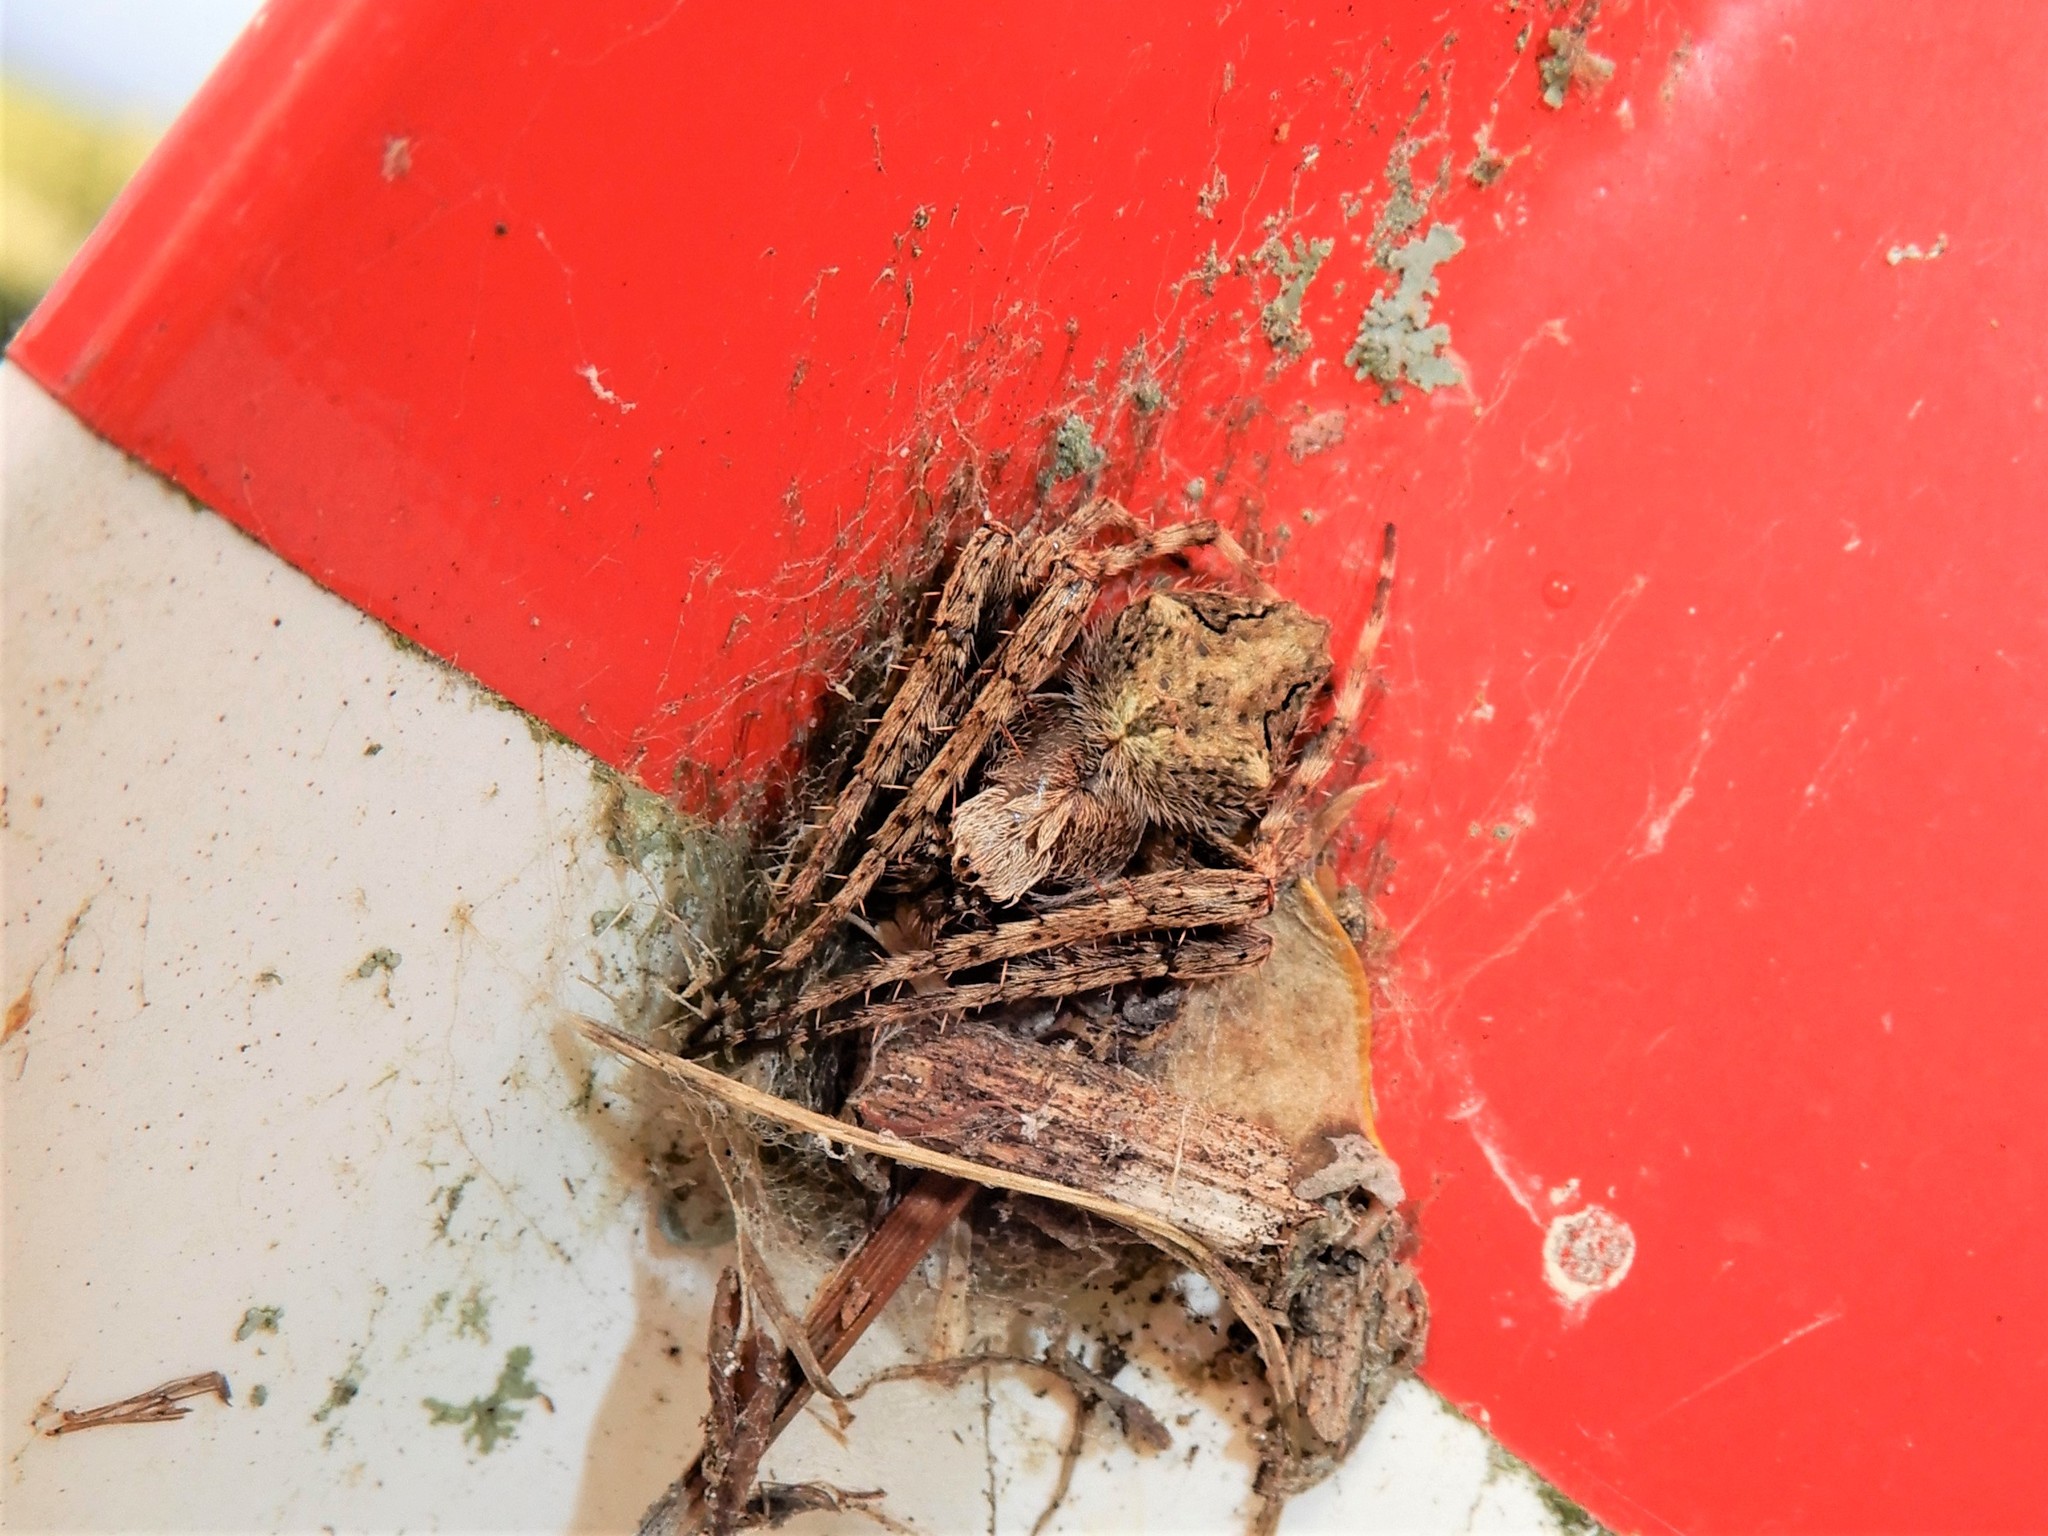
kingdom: Animalia
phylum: Arthropoda
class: Arachnida
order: Araneae
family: Araneidae
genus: Eriophora
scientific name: Eriophora pustulosa
